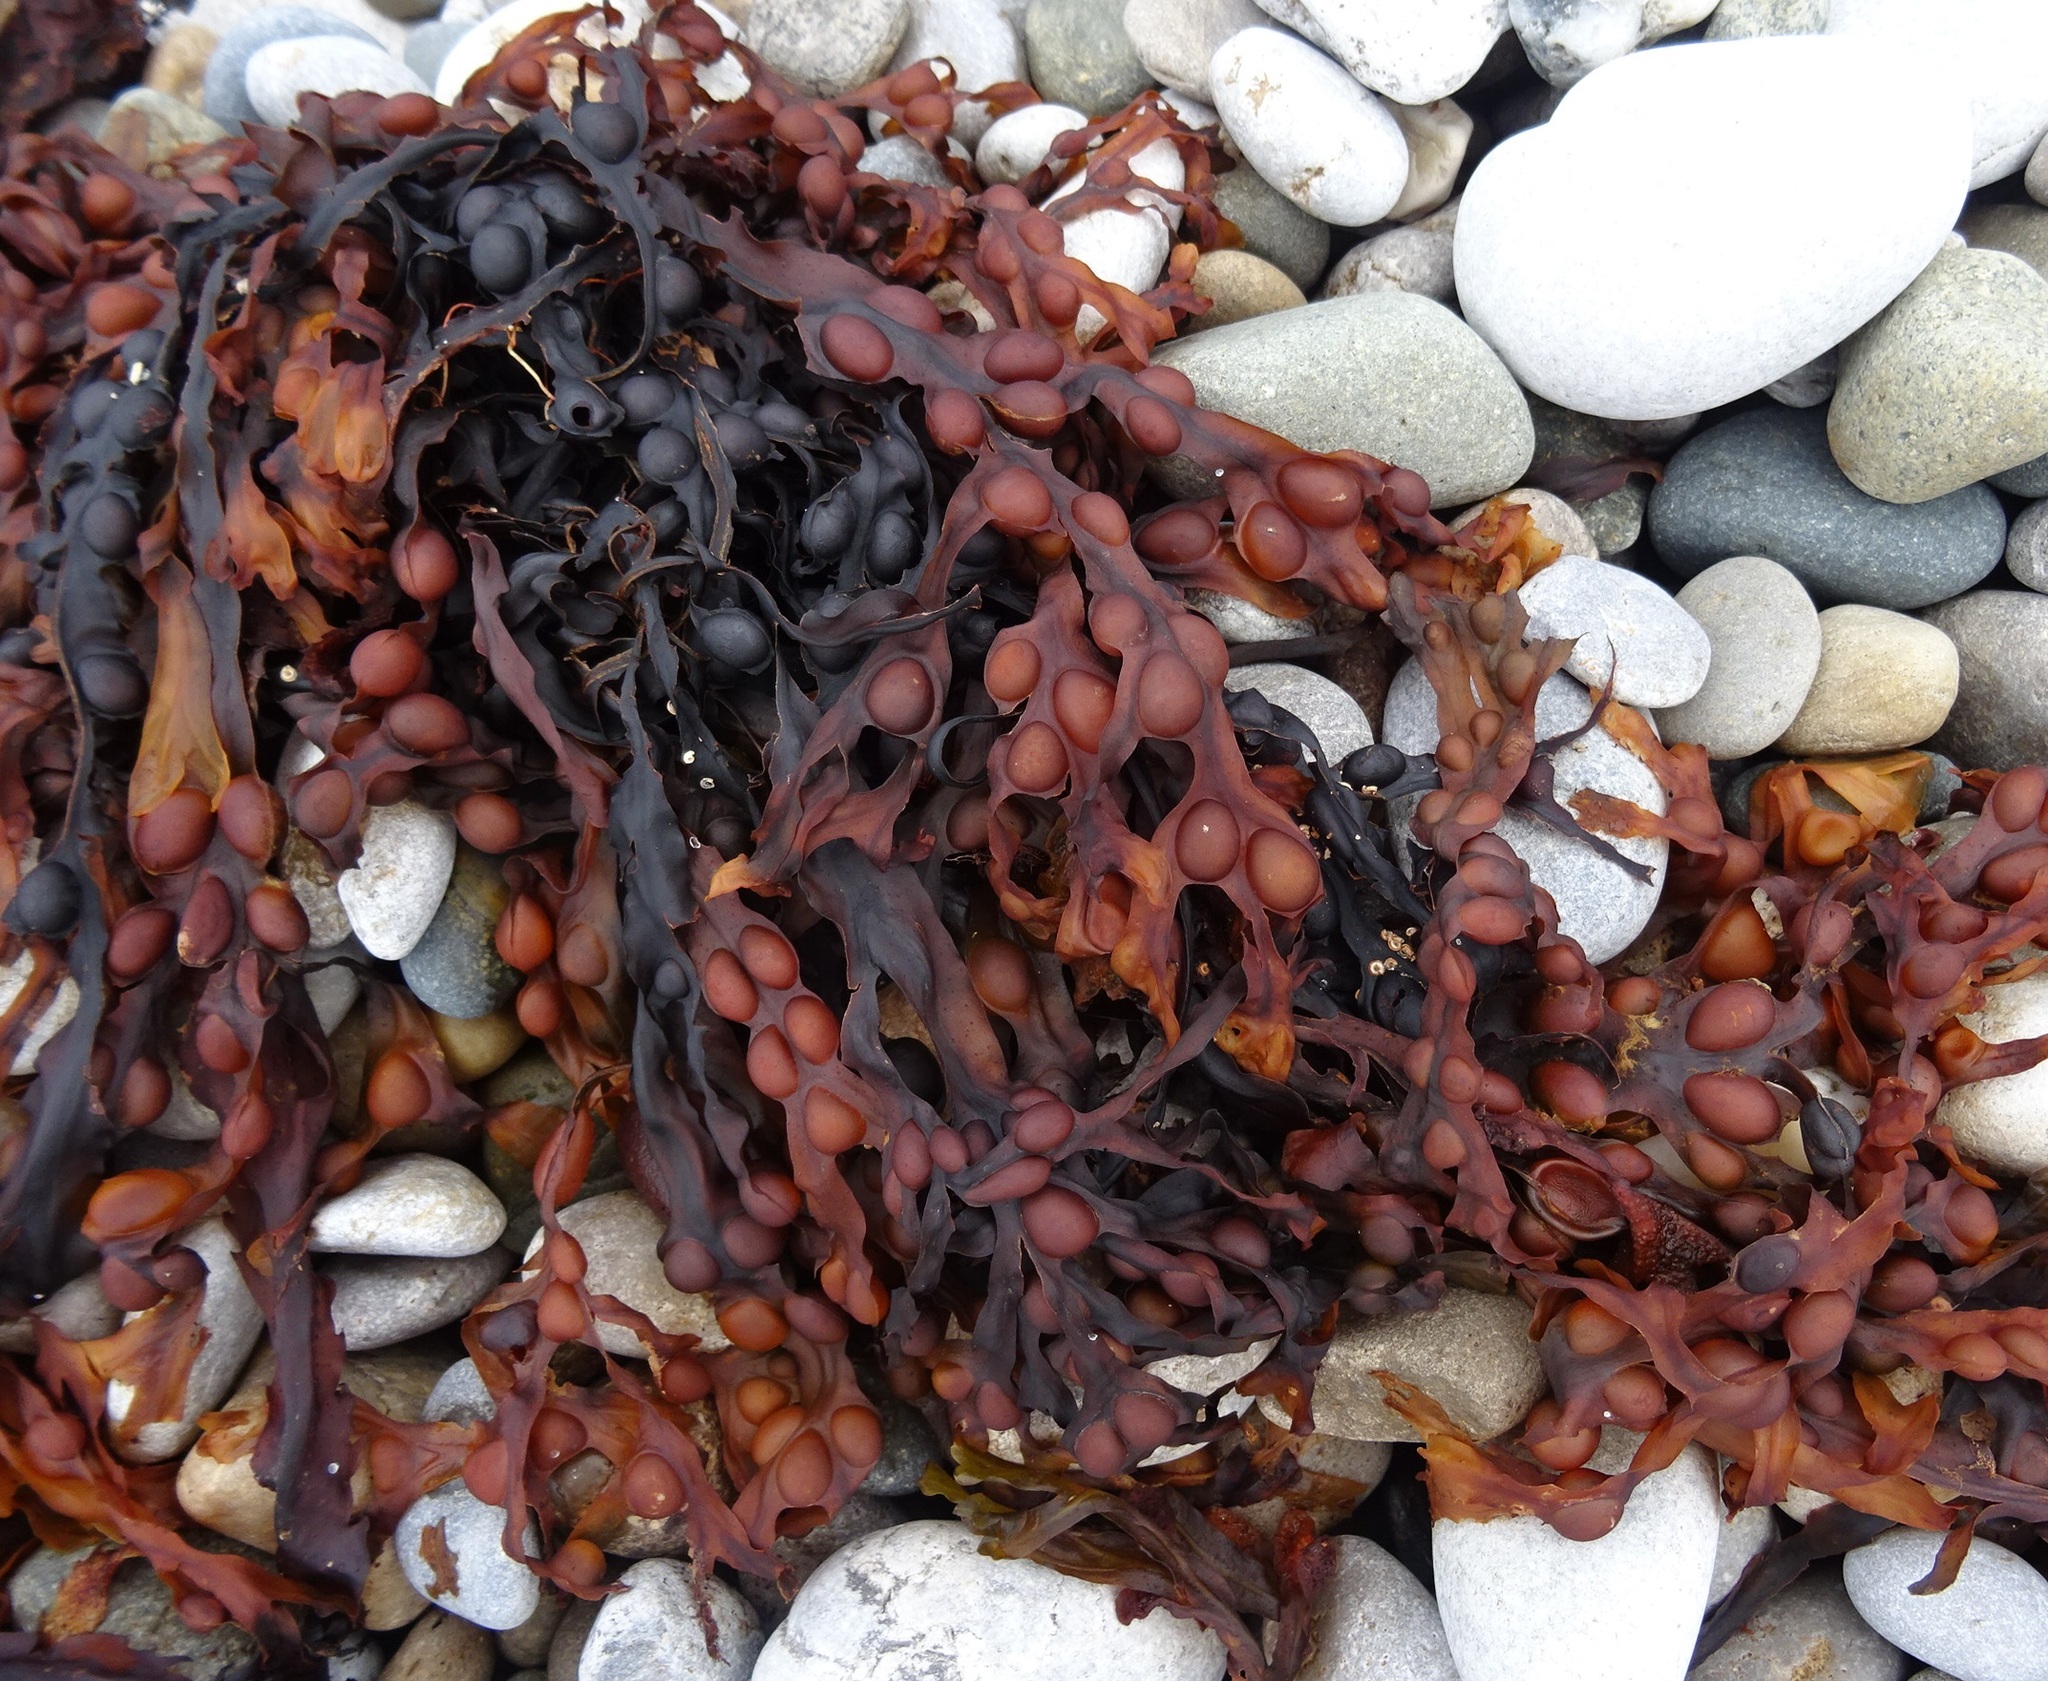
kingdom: Chromista
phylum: Ochrophyta
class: Phaeophyceae
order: Fucales
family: Fucaceae
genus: Fucus
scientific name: Fucus vesiculosus
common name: Bladder wrack
